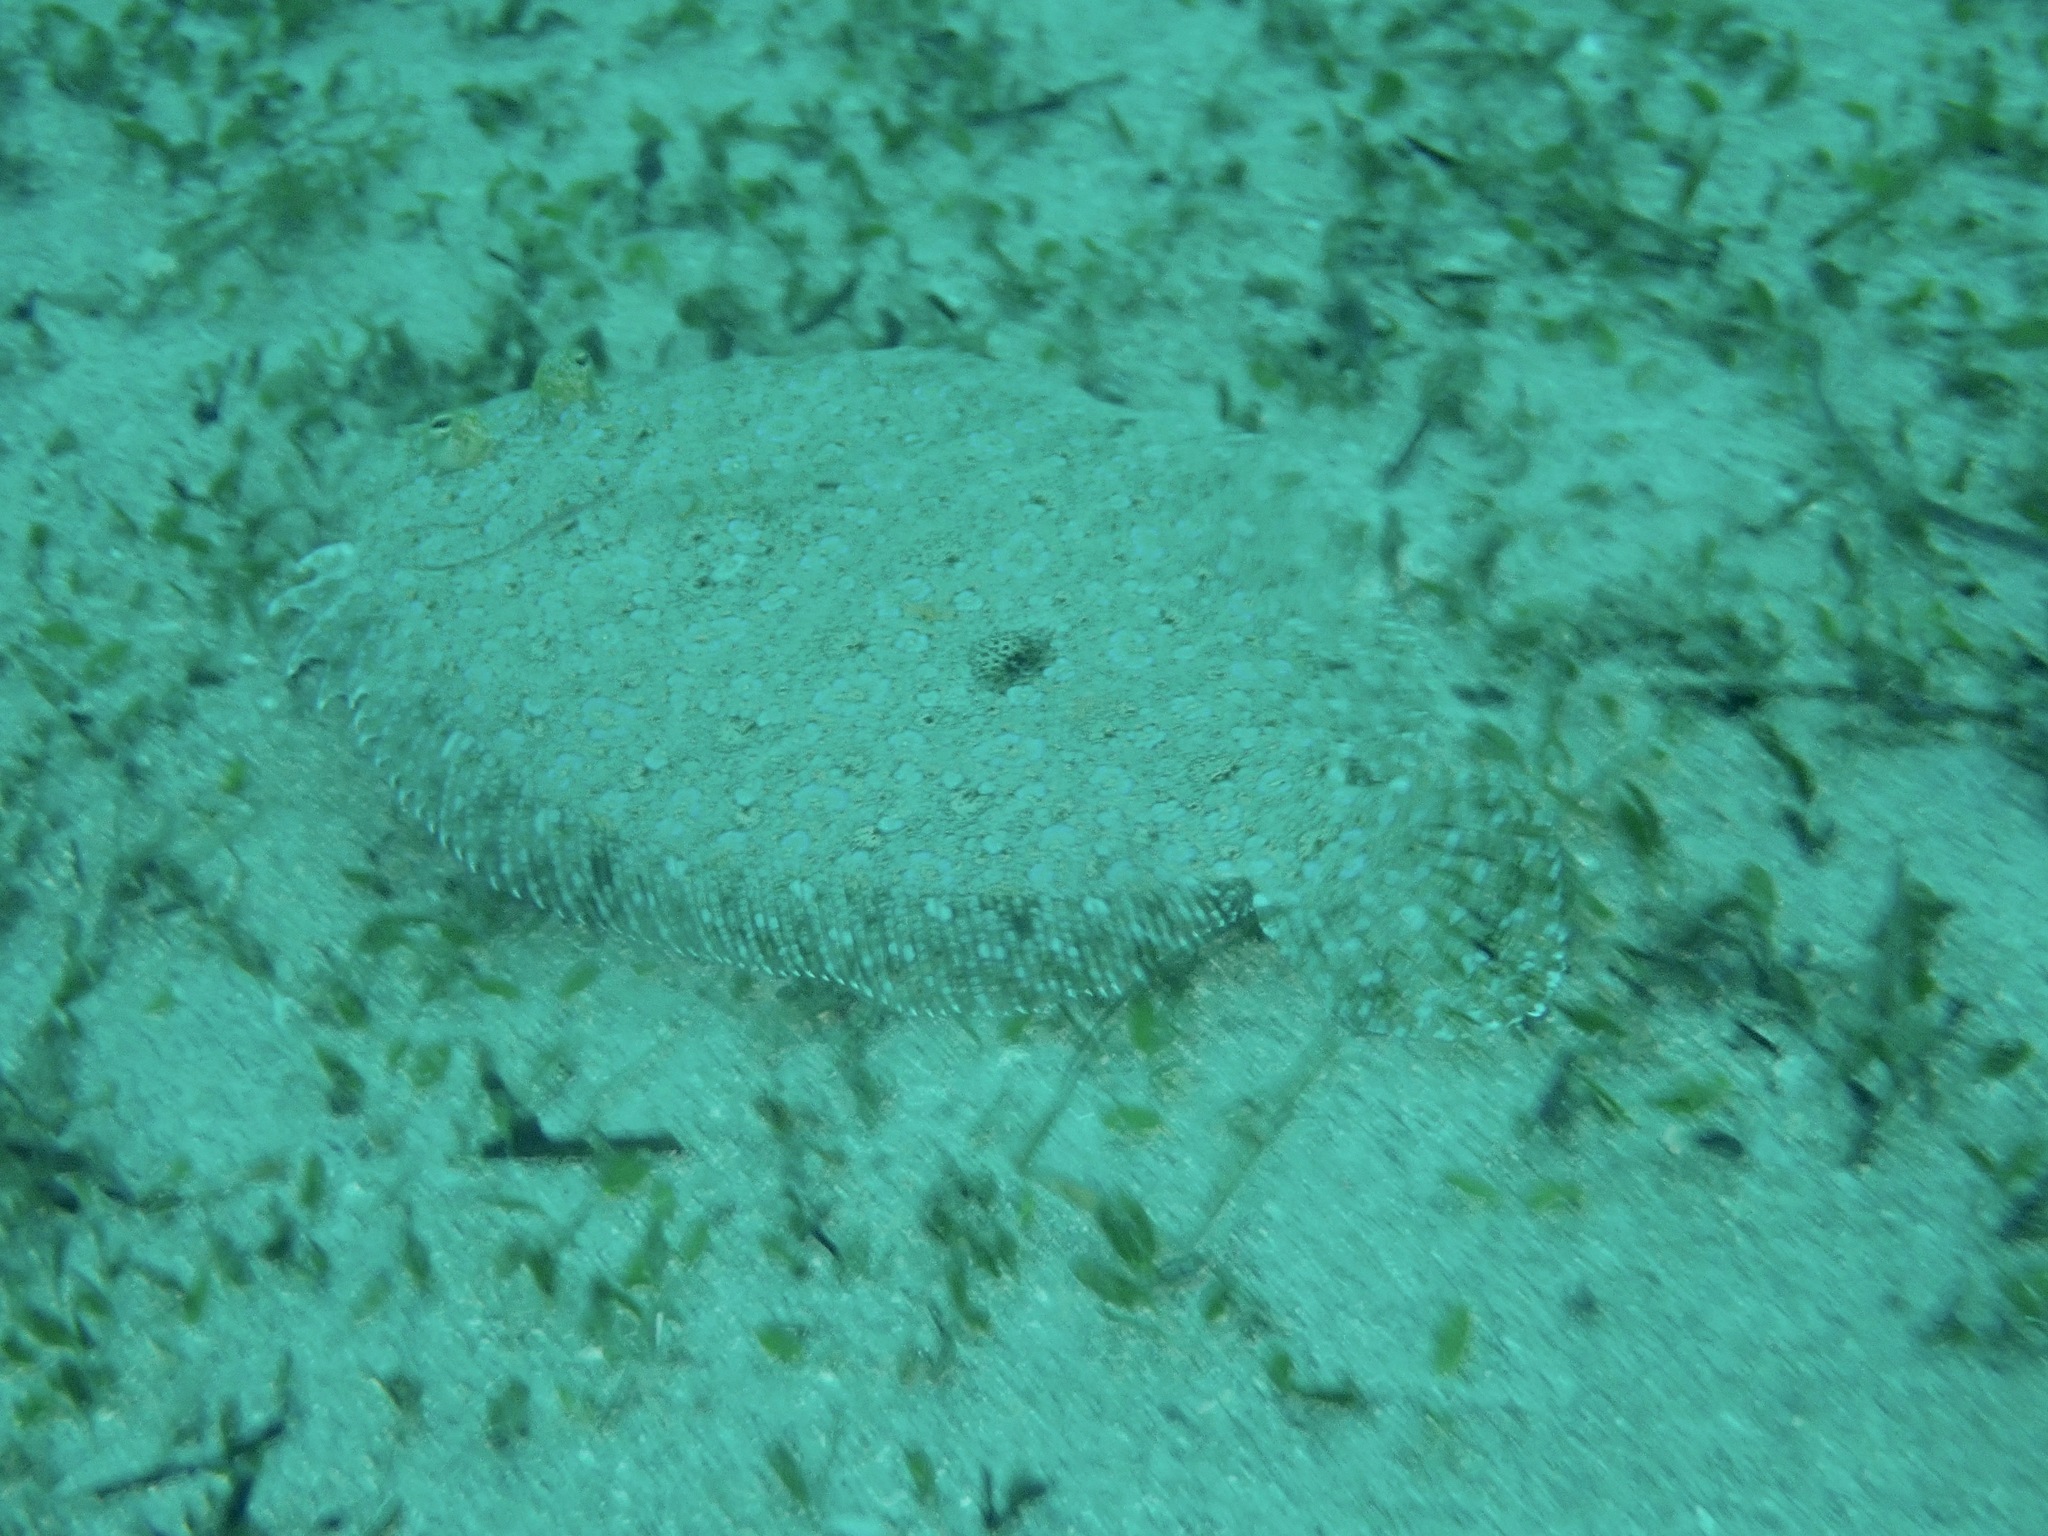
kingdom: Animalia
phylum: Chordata
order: Pleuronectiformes
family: Bothidae
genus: Bothus
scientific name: Bothus pantherinus
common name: Leopard flounder
